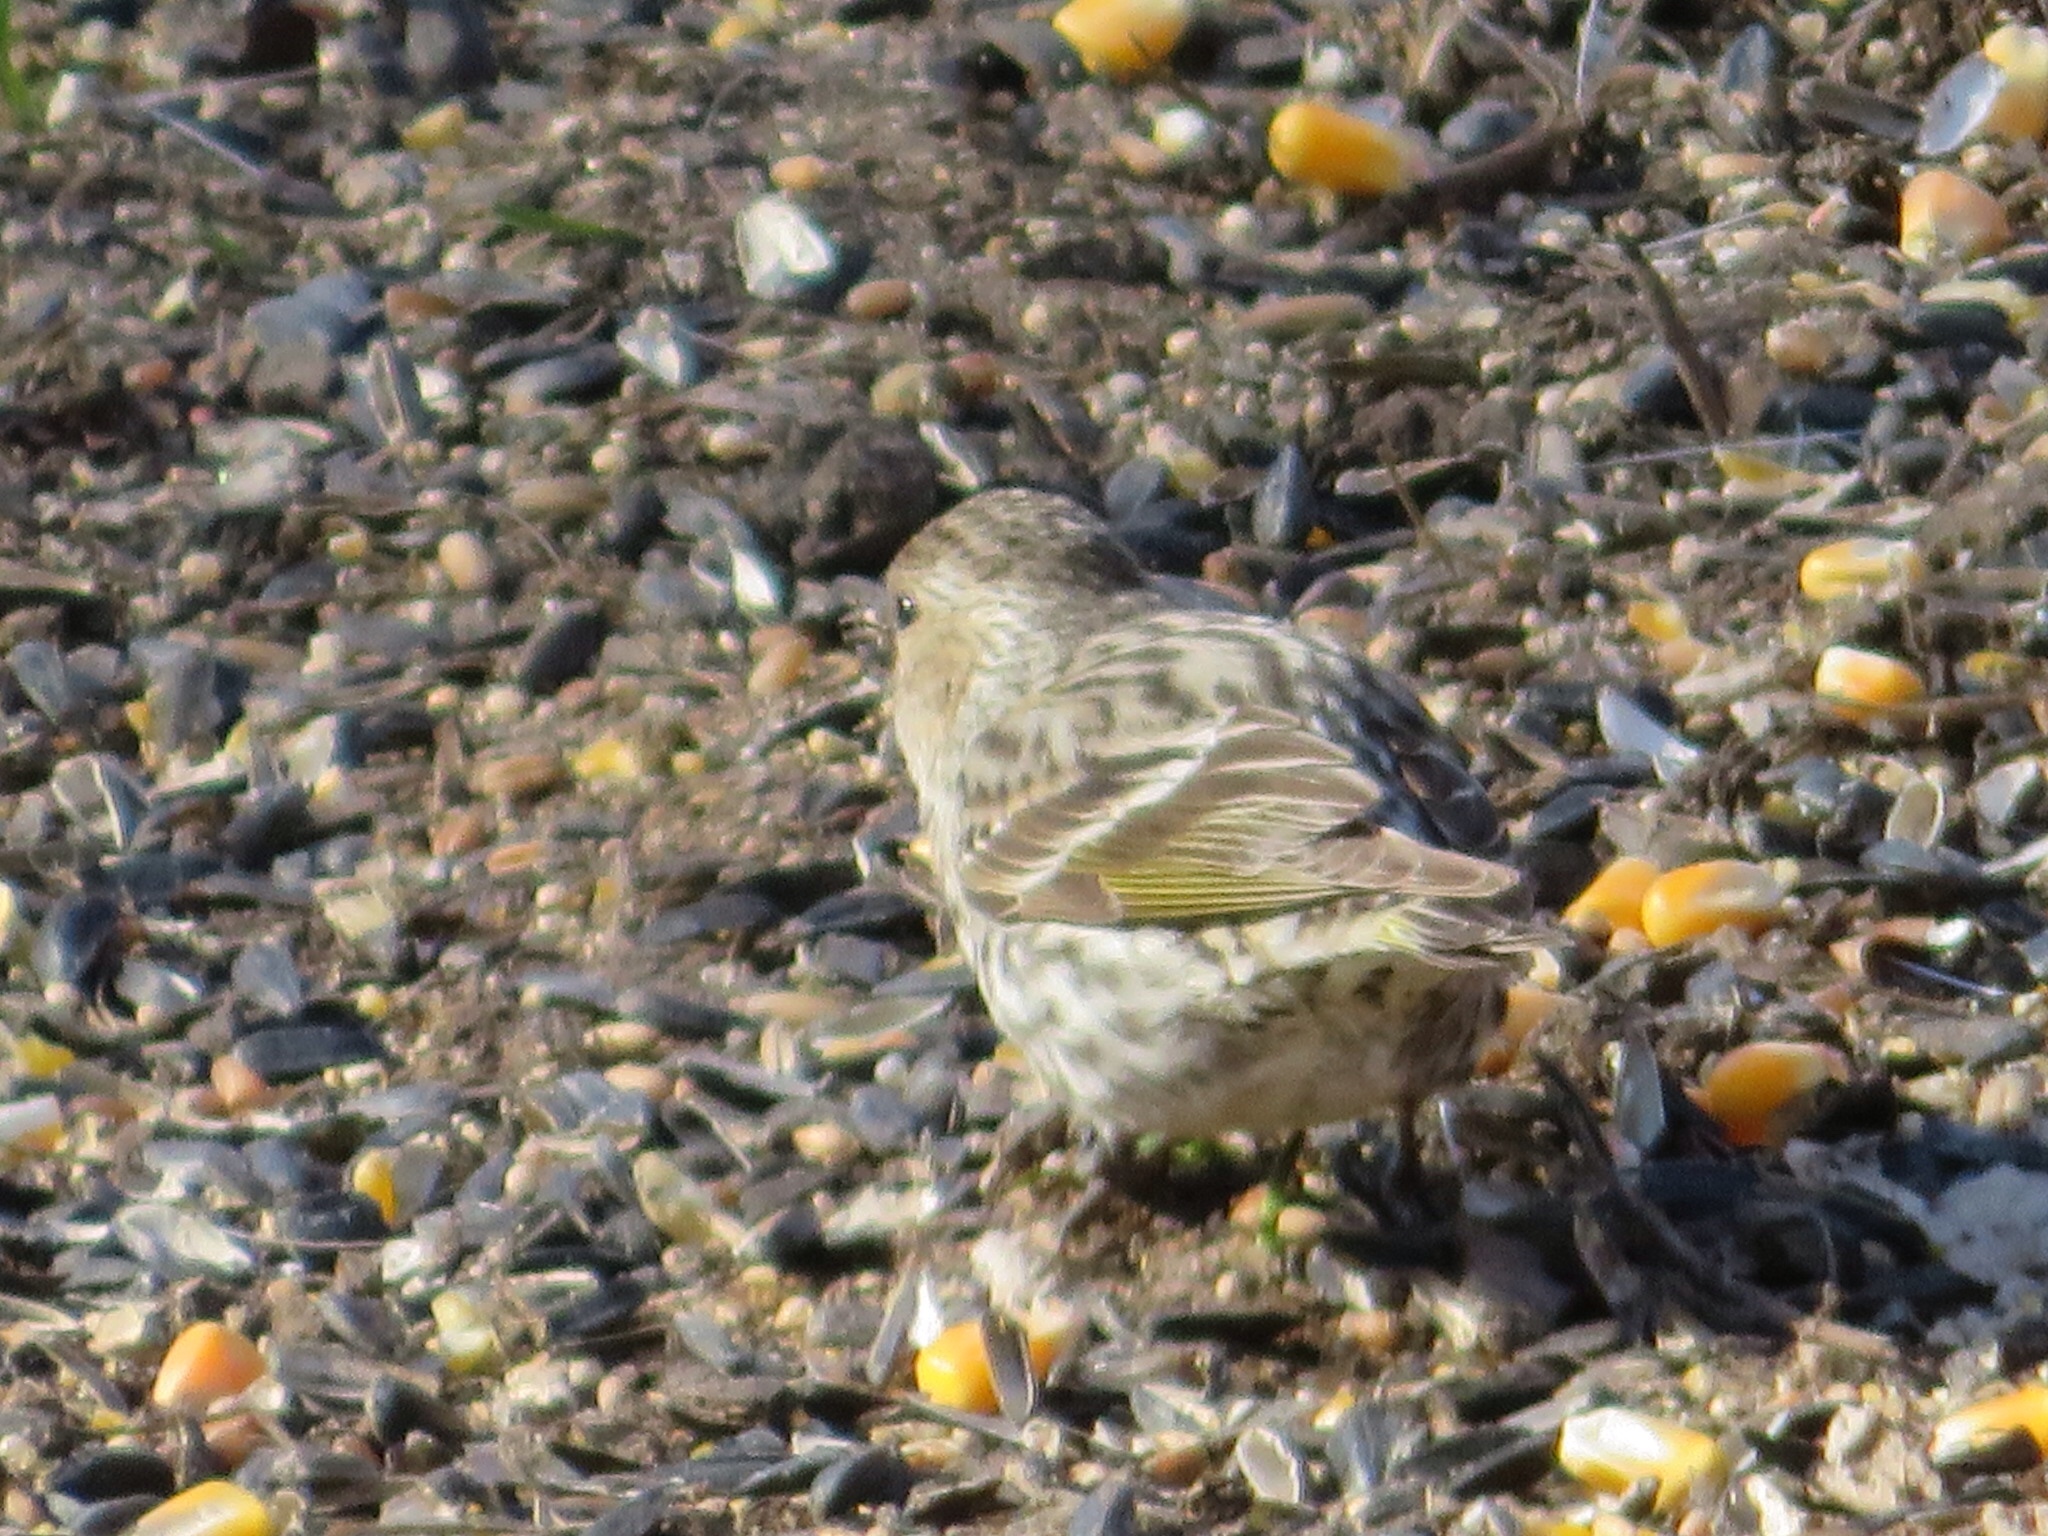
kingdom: Animalia
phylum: Chordata
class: Aves
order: Passeriformes
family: Fringillidae
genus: Spinus
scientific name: Spinus pinus
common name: Pine siskin
